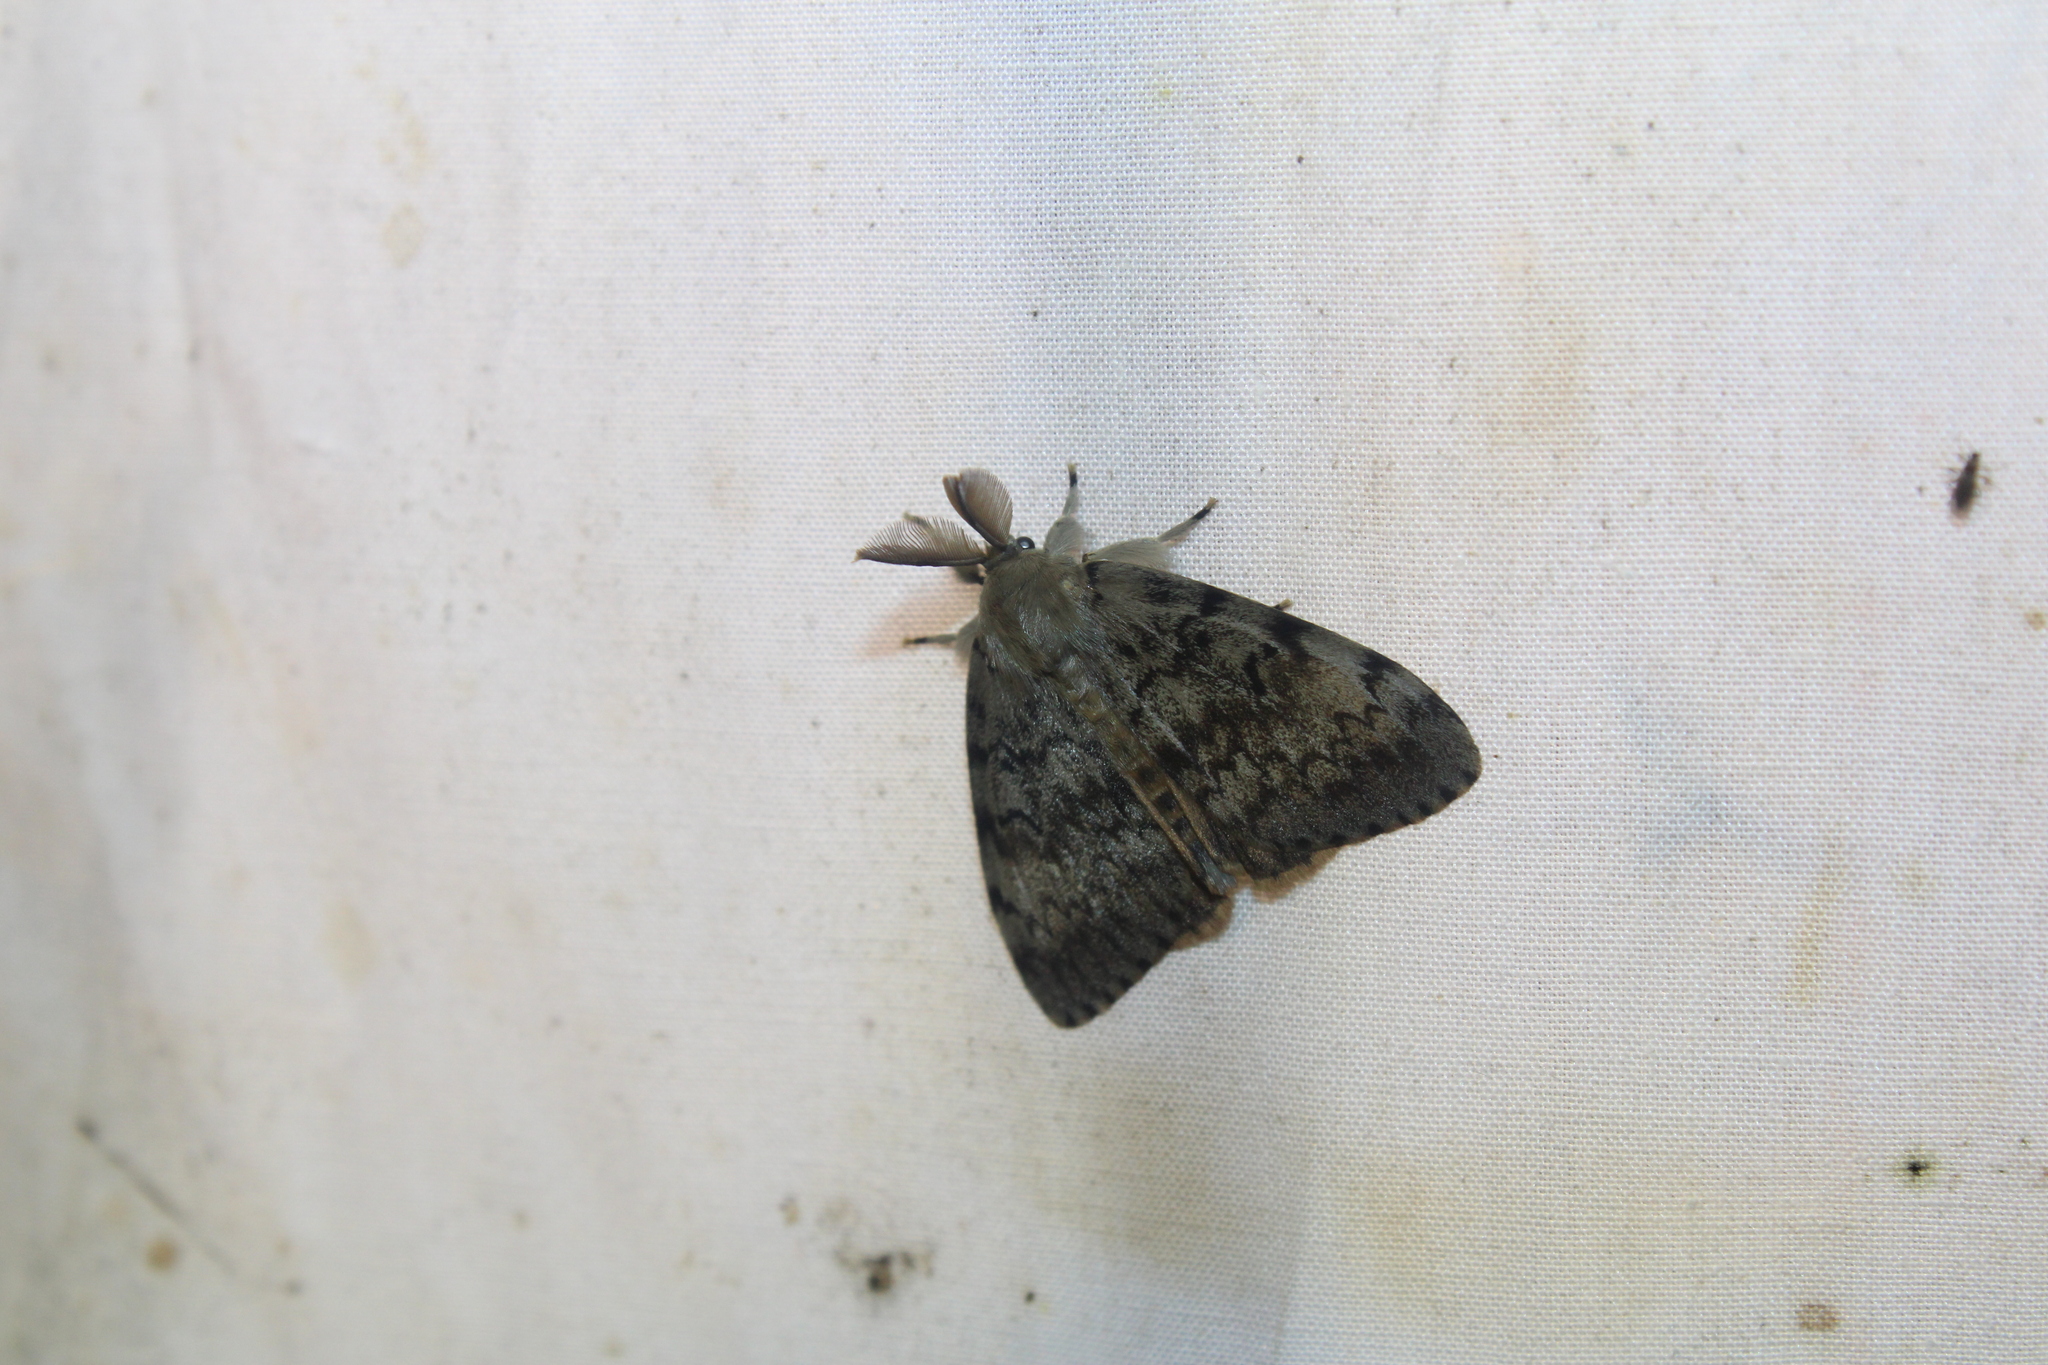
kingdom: Animalia
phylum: Arthropoda
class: Insecta
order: Lepidoptera
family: Erebidae
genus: Lymantria
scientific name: Lymantria dispar
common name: Gypsy moth
